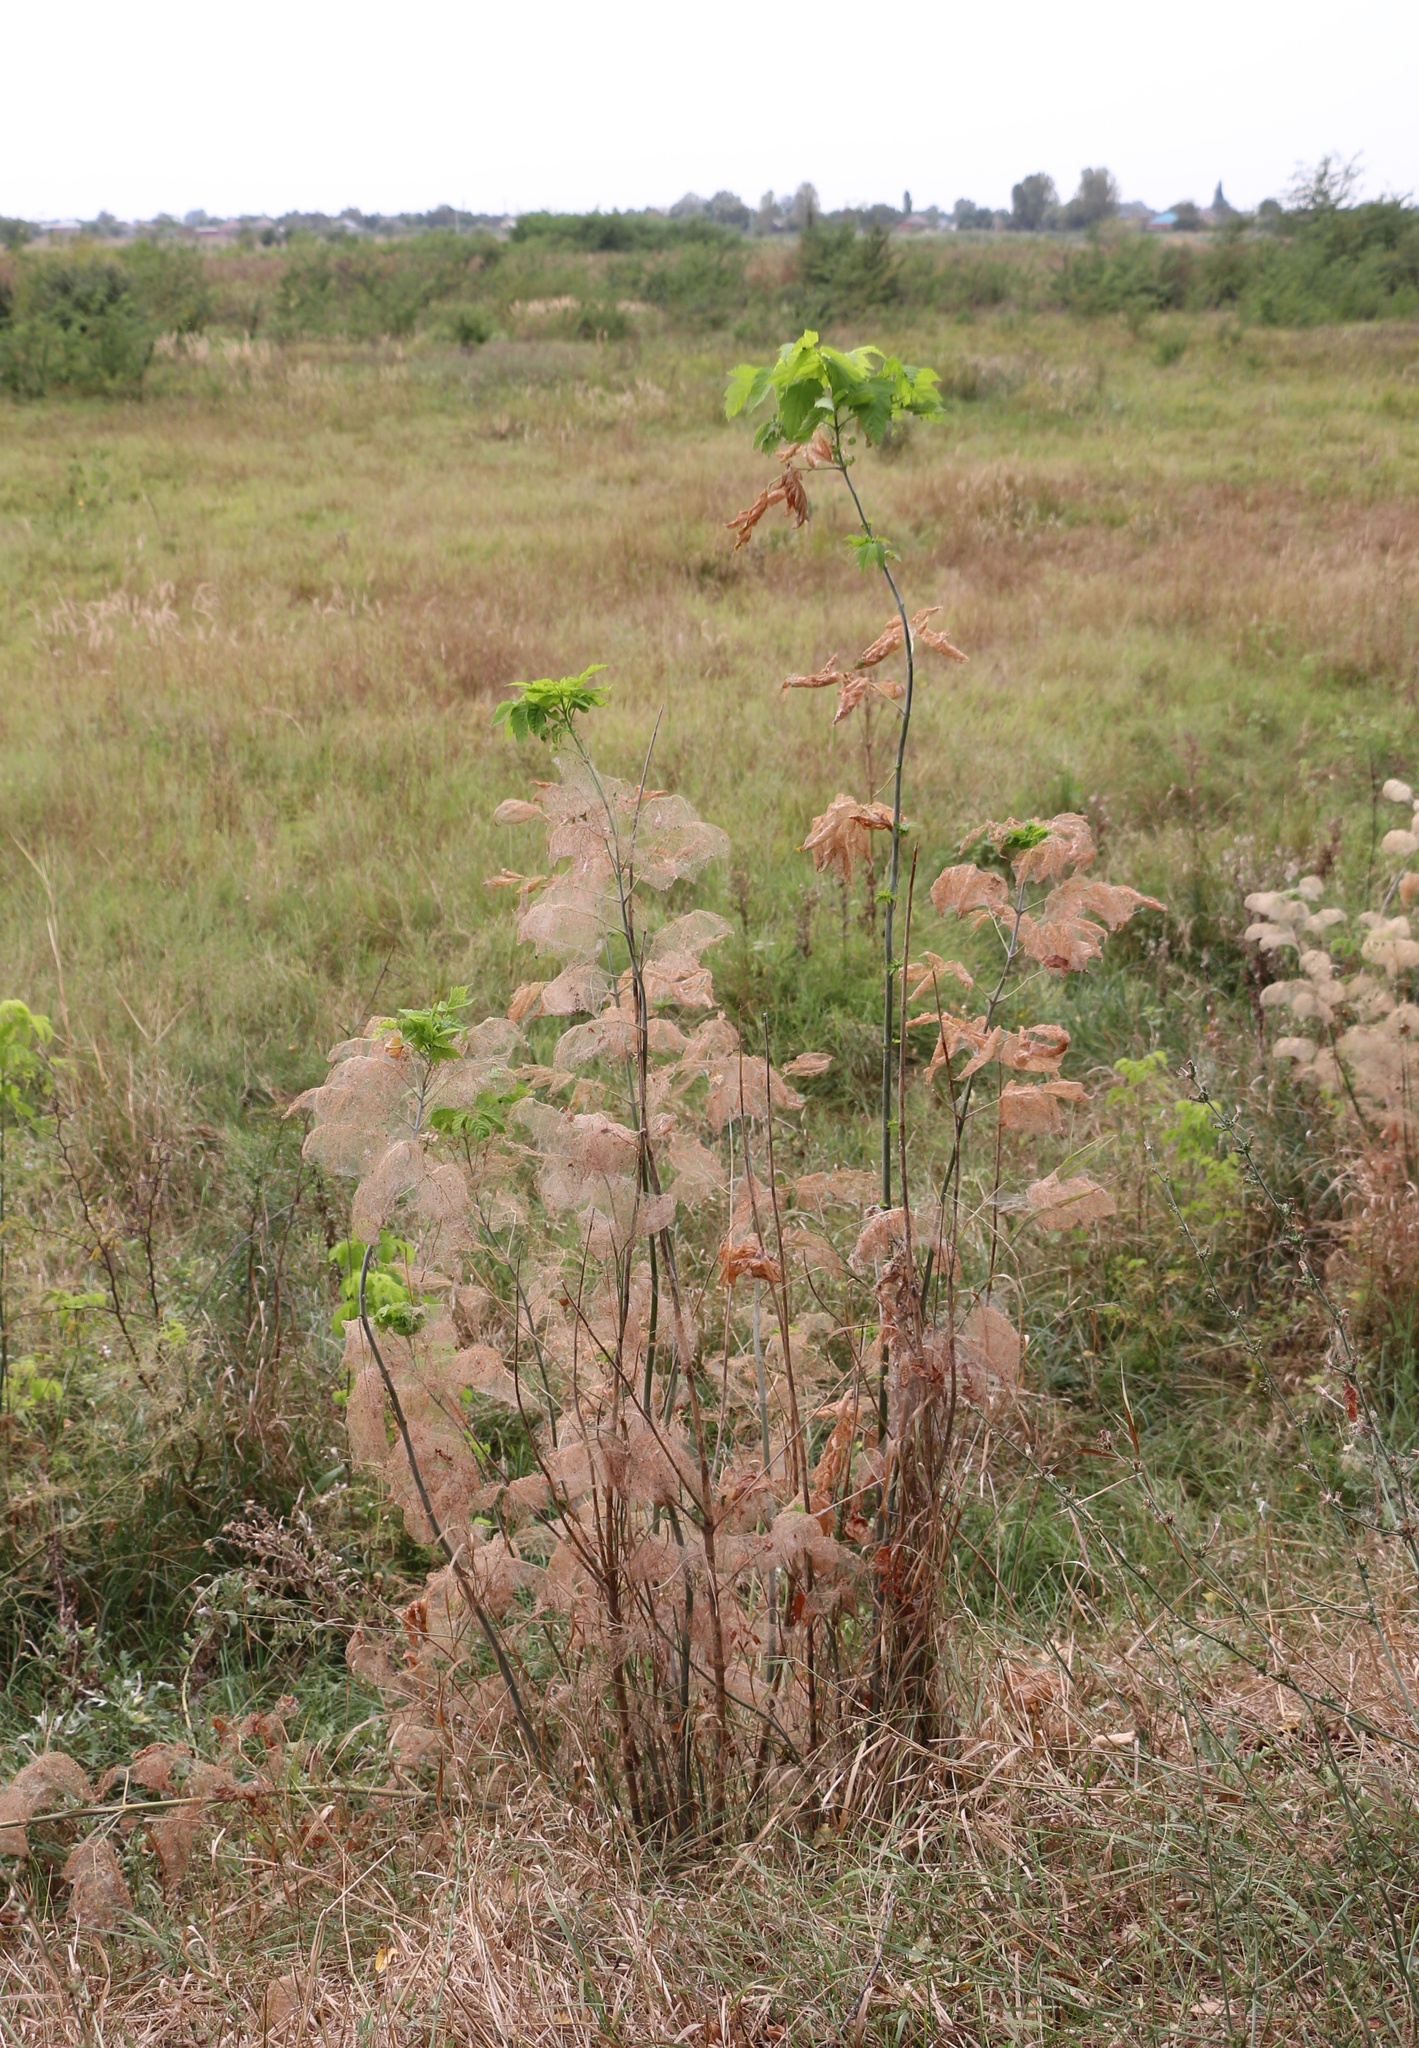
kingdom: Plantae
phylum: Tracheophyta
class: Magnoliopsida
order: Sapindales
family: Sapindaceae
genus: Acer
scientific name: Acer negundo
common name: Ashleaf maple
